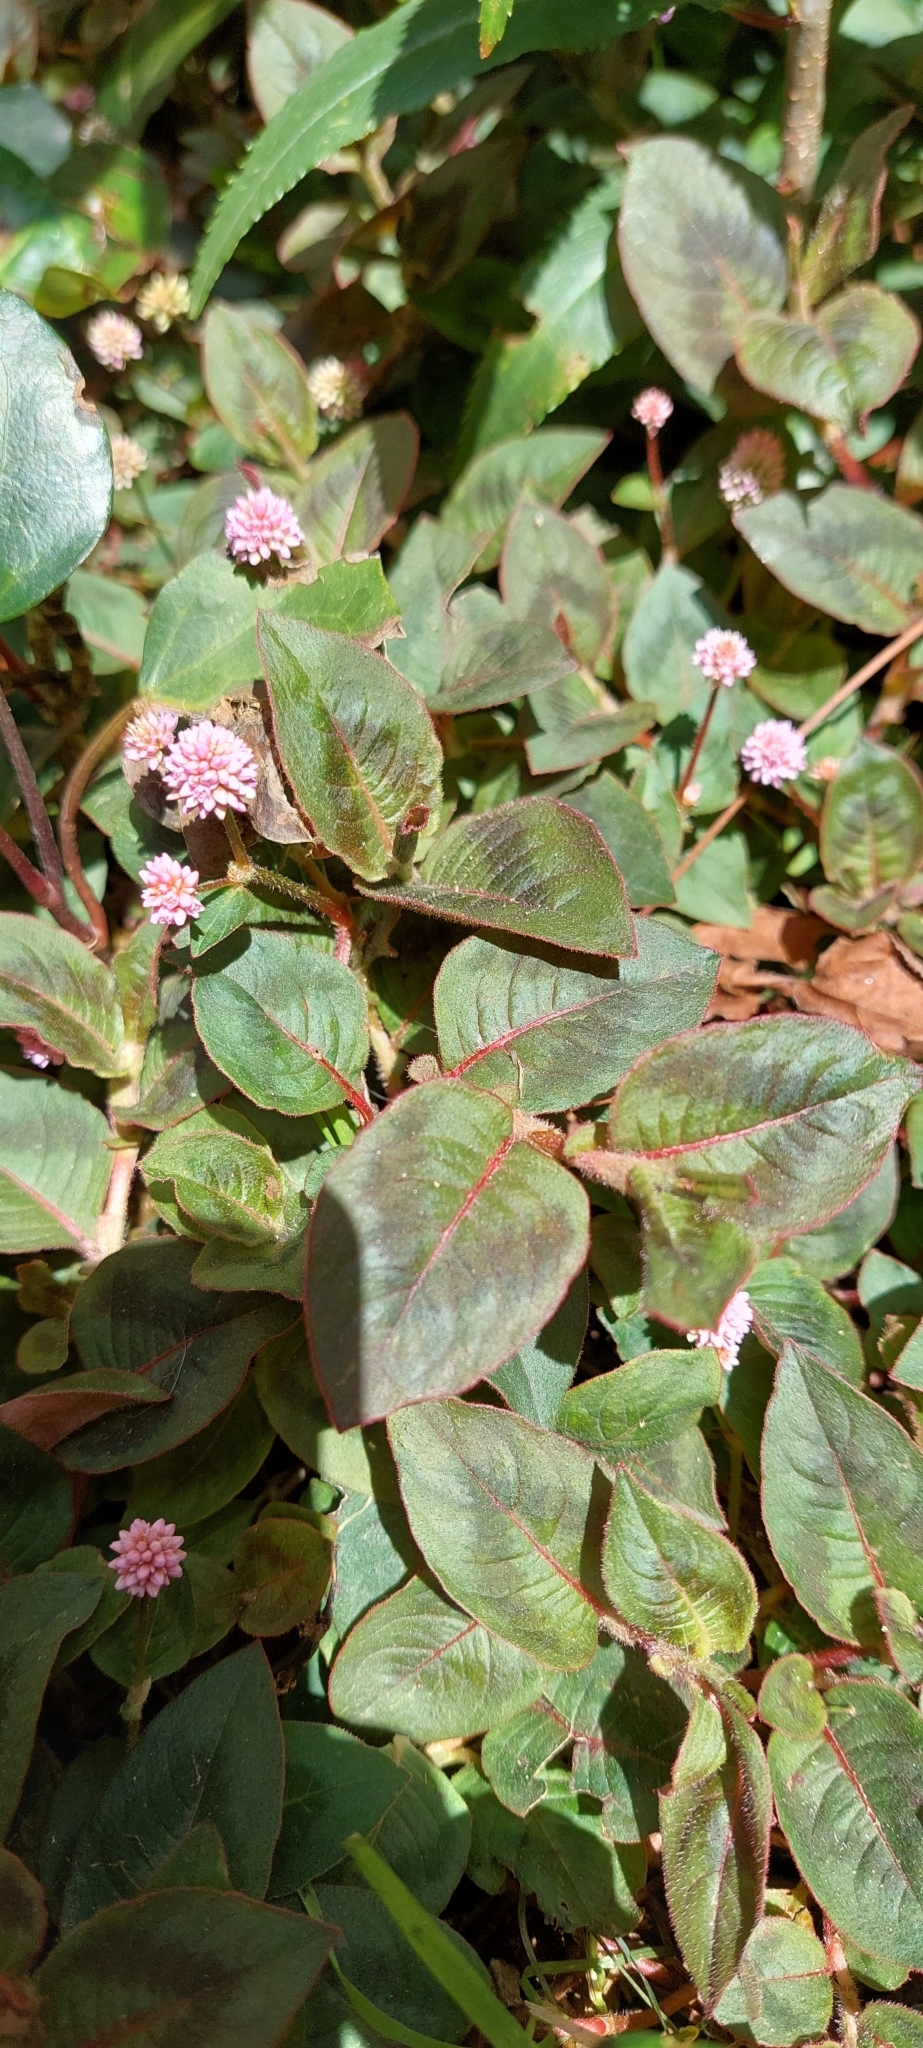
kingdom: Plantae
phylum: Tracheophyta
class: Magnoliopsida
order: Caryophyllales
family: Polygonaceae
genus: Persicaria
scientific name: Persicaria capitata
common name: Pinkhead smartweed
